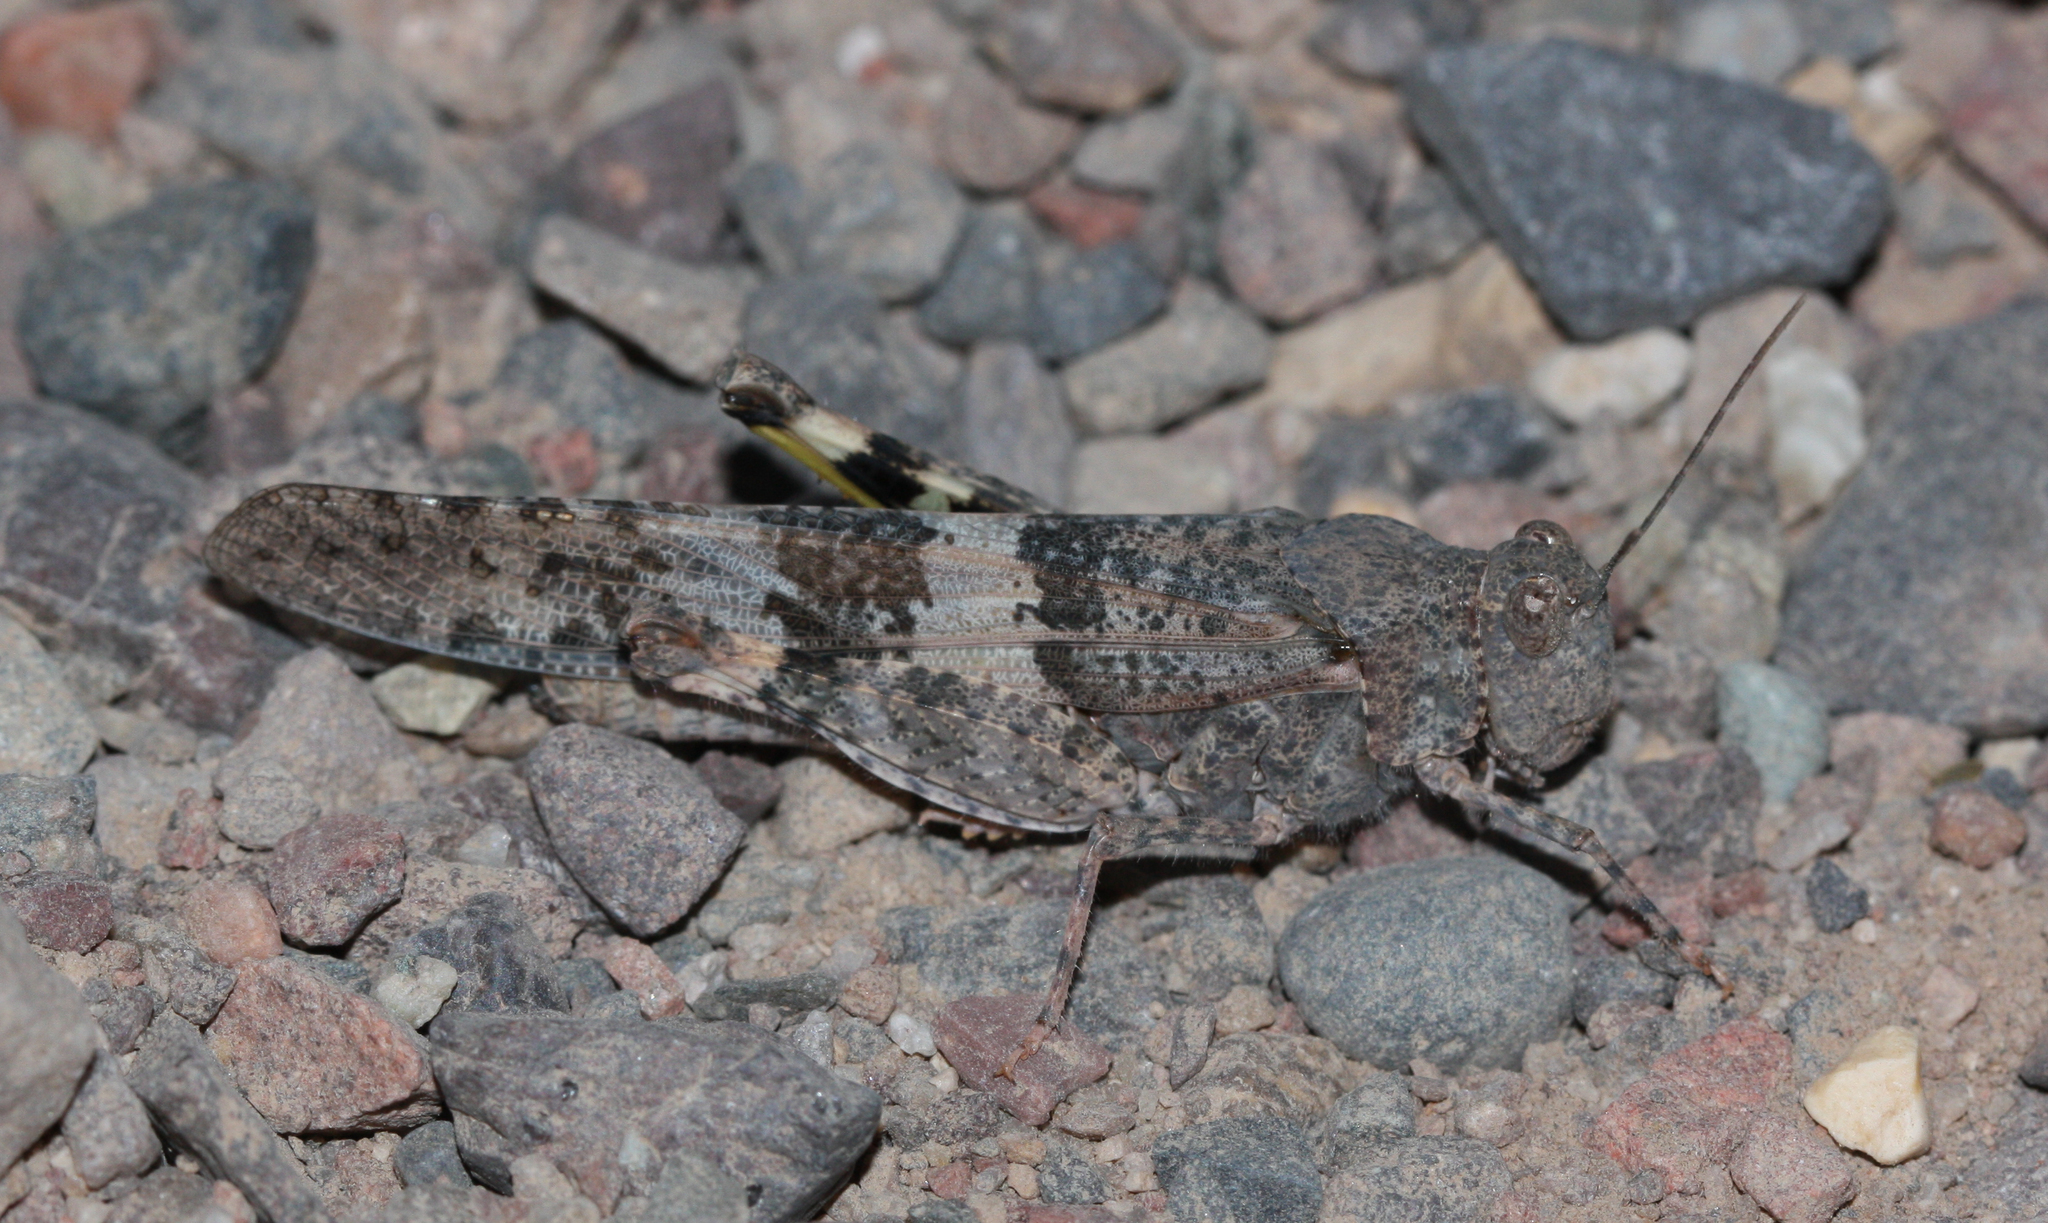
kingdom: Animalia
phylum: Arthropoda
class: Insecta
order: Orthoptera
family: Acrididae
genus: Trimerotropis
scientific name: Trimerotropis pallidipennis
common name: Pallid-winged grasshopper
